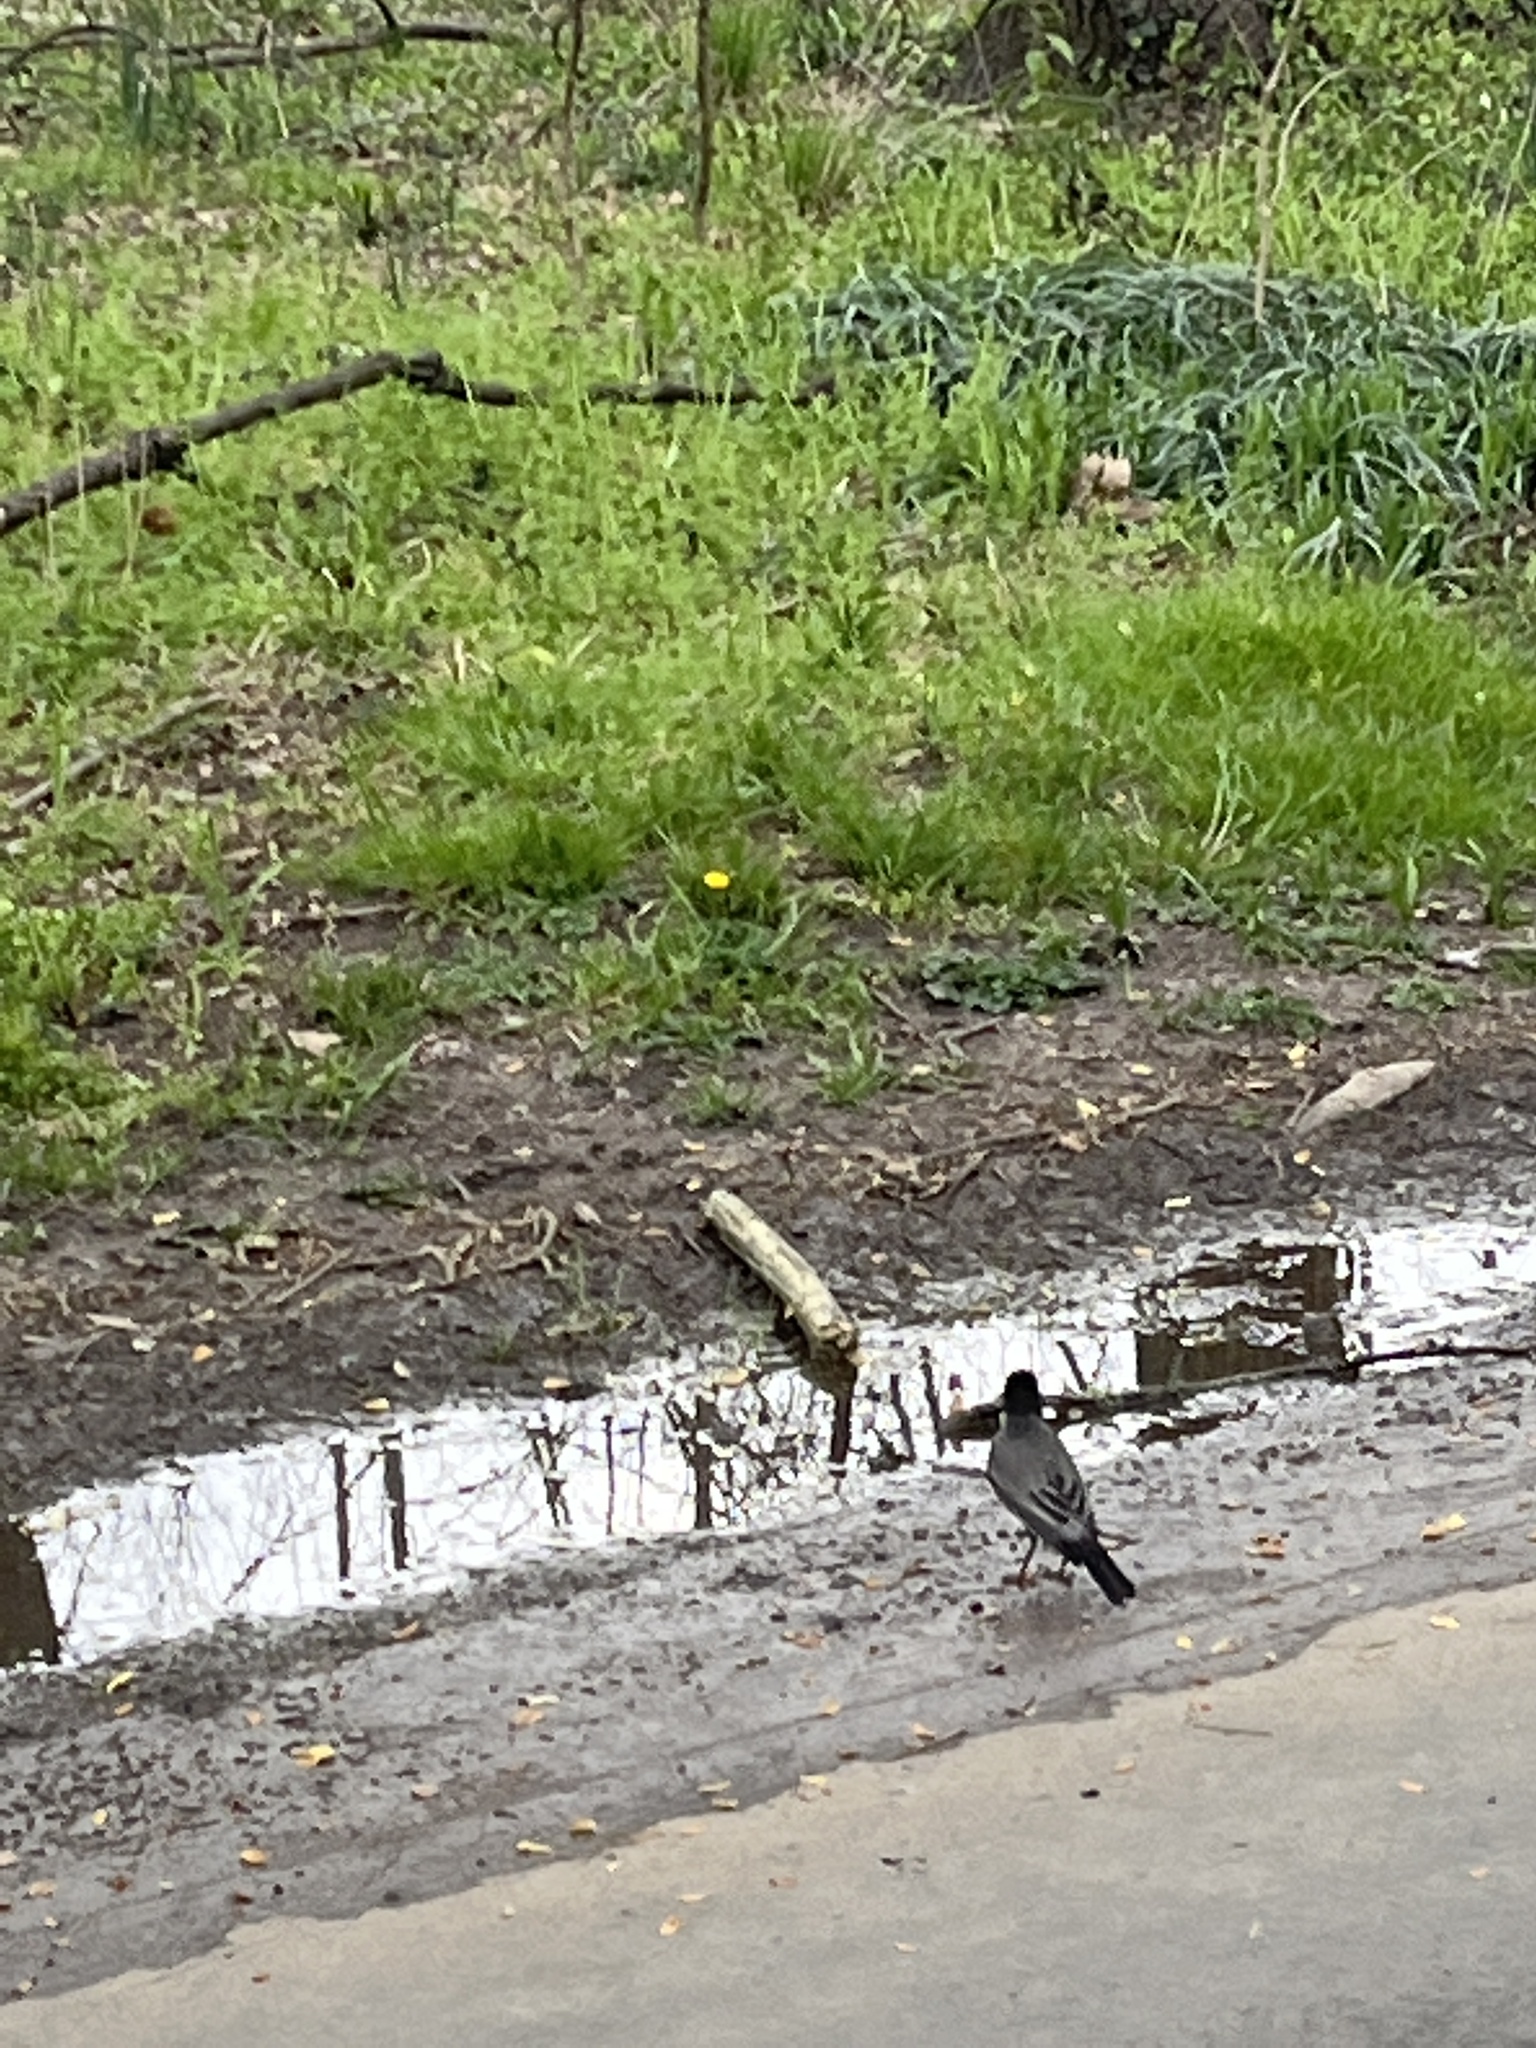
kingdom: Animalia
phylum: Chordata
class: Aves
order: Passeriformes
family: Turdidae
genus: Turdus
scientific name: Turdus migratorius
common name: American robin
